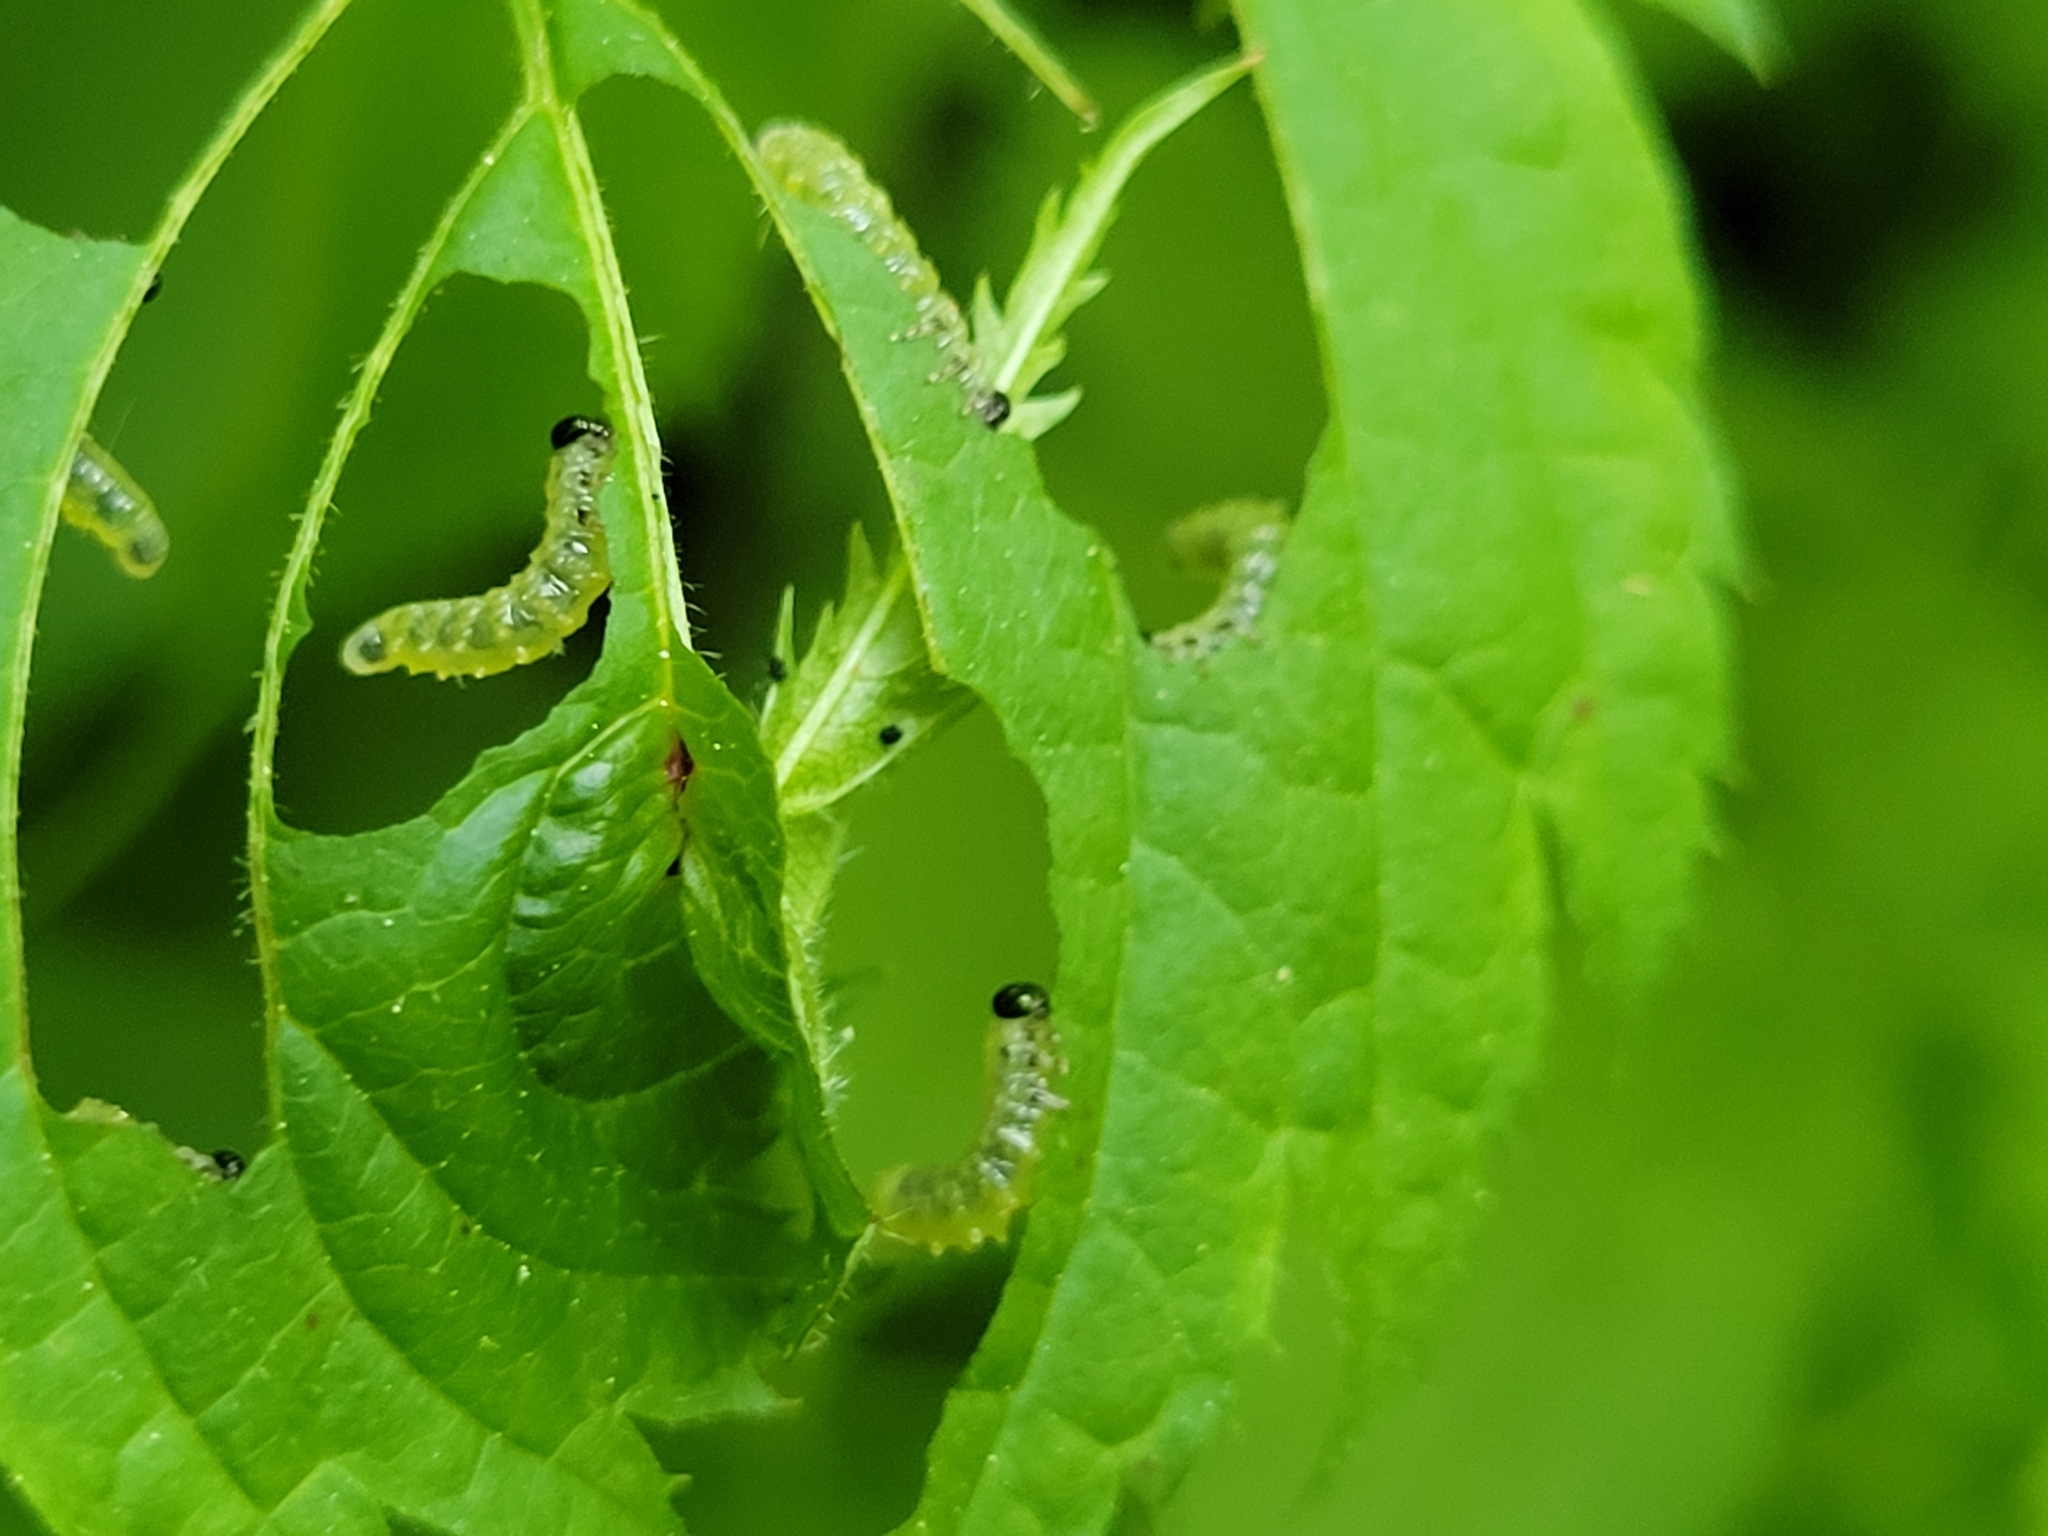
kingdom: Animalia
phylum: Arthropoda
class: Insecta
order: Hymenoptera
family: Tenthredinidae
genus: Euura
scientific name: Euura spiraeae
